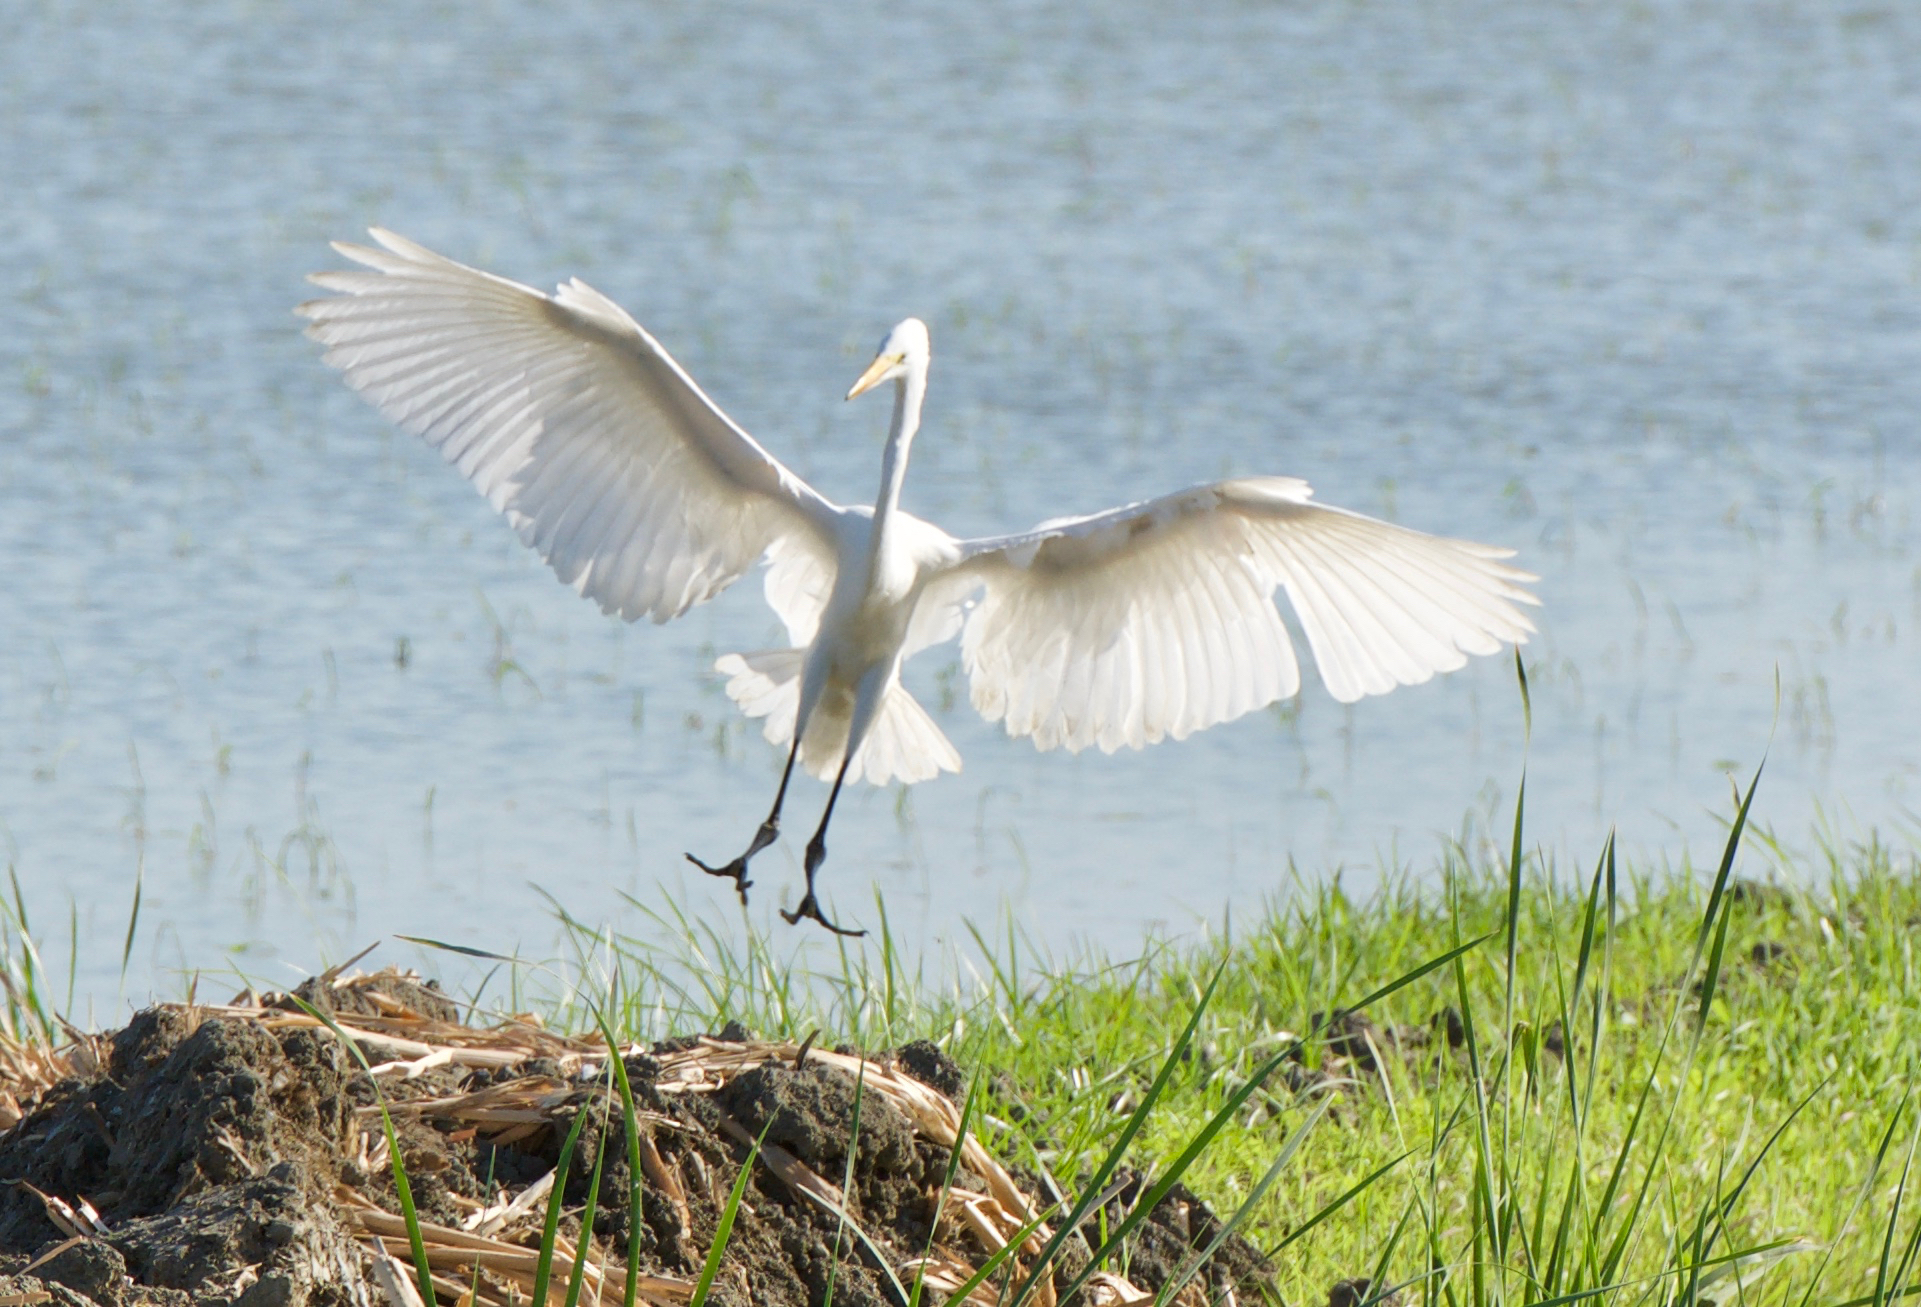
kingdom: Animalia
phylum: Chordata
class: Aves
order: Pelecaniformes
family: Ardeidae
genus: Ardea
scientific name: Ardea alba
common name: Great egret
